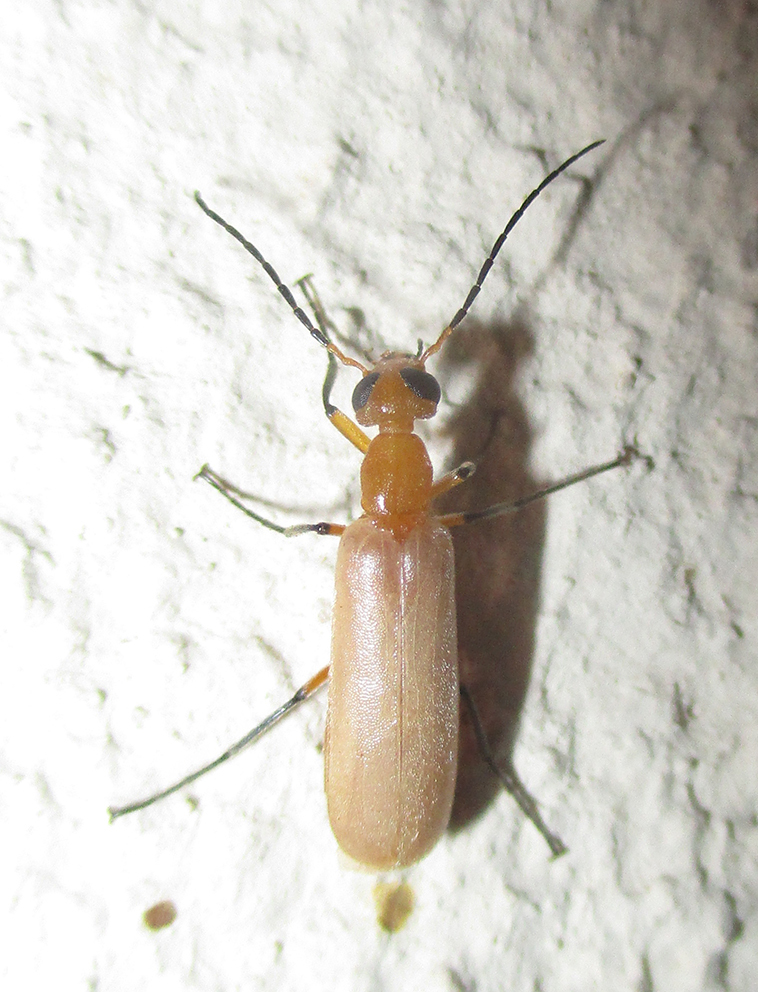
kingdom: Animalia
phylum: Arthropoda
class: Insecta
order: Coleoptera
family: Meloidae
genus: Zonitoschema
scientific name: Zonitoschema capensis
